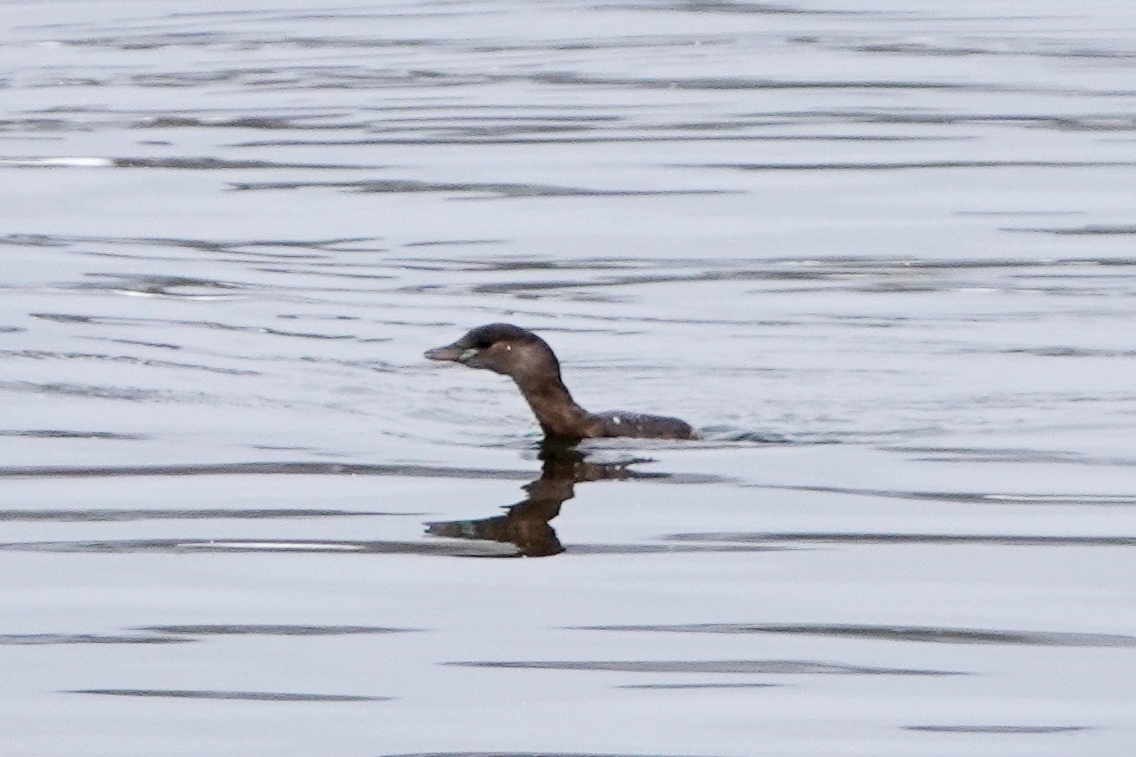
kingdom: Animalia
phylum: Chordata
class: Aves
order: Podicipediformes
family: Podicipedidae
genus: Tachybaptus
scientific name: Tachybaptus ruficollis
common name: Little grebe
